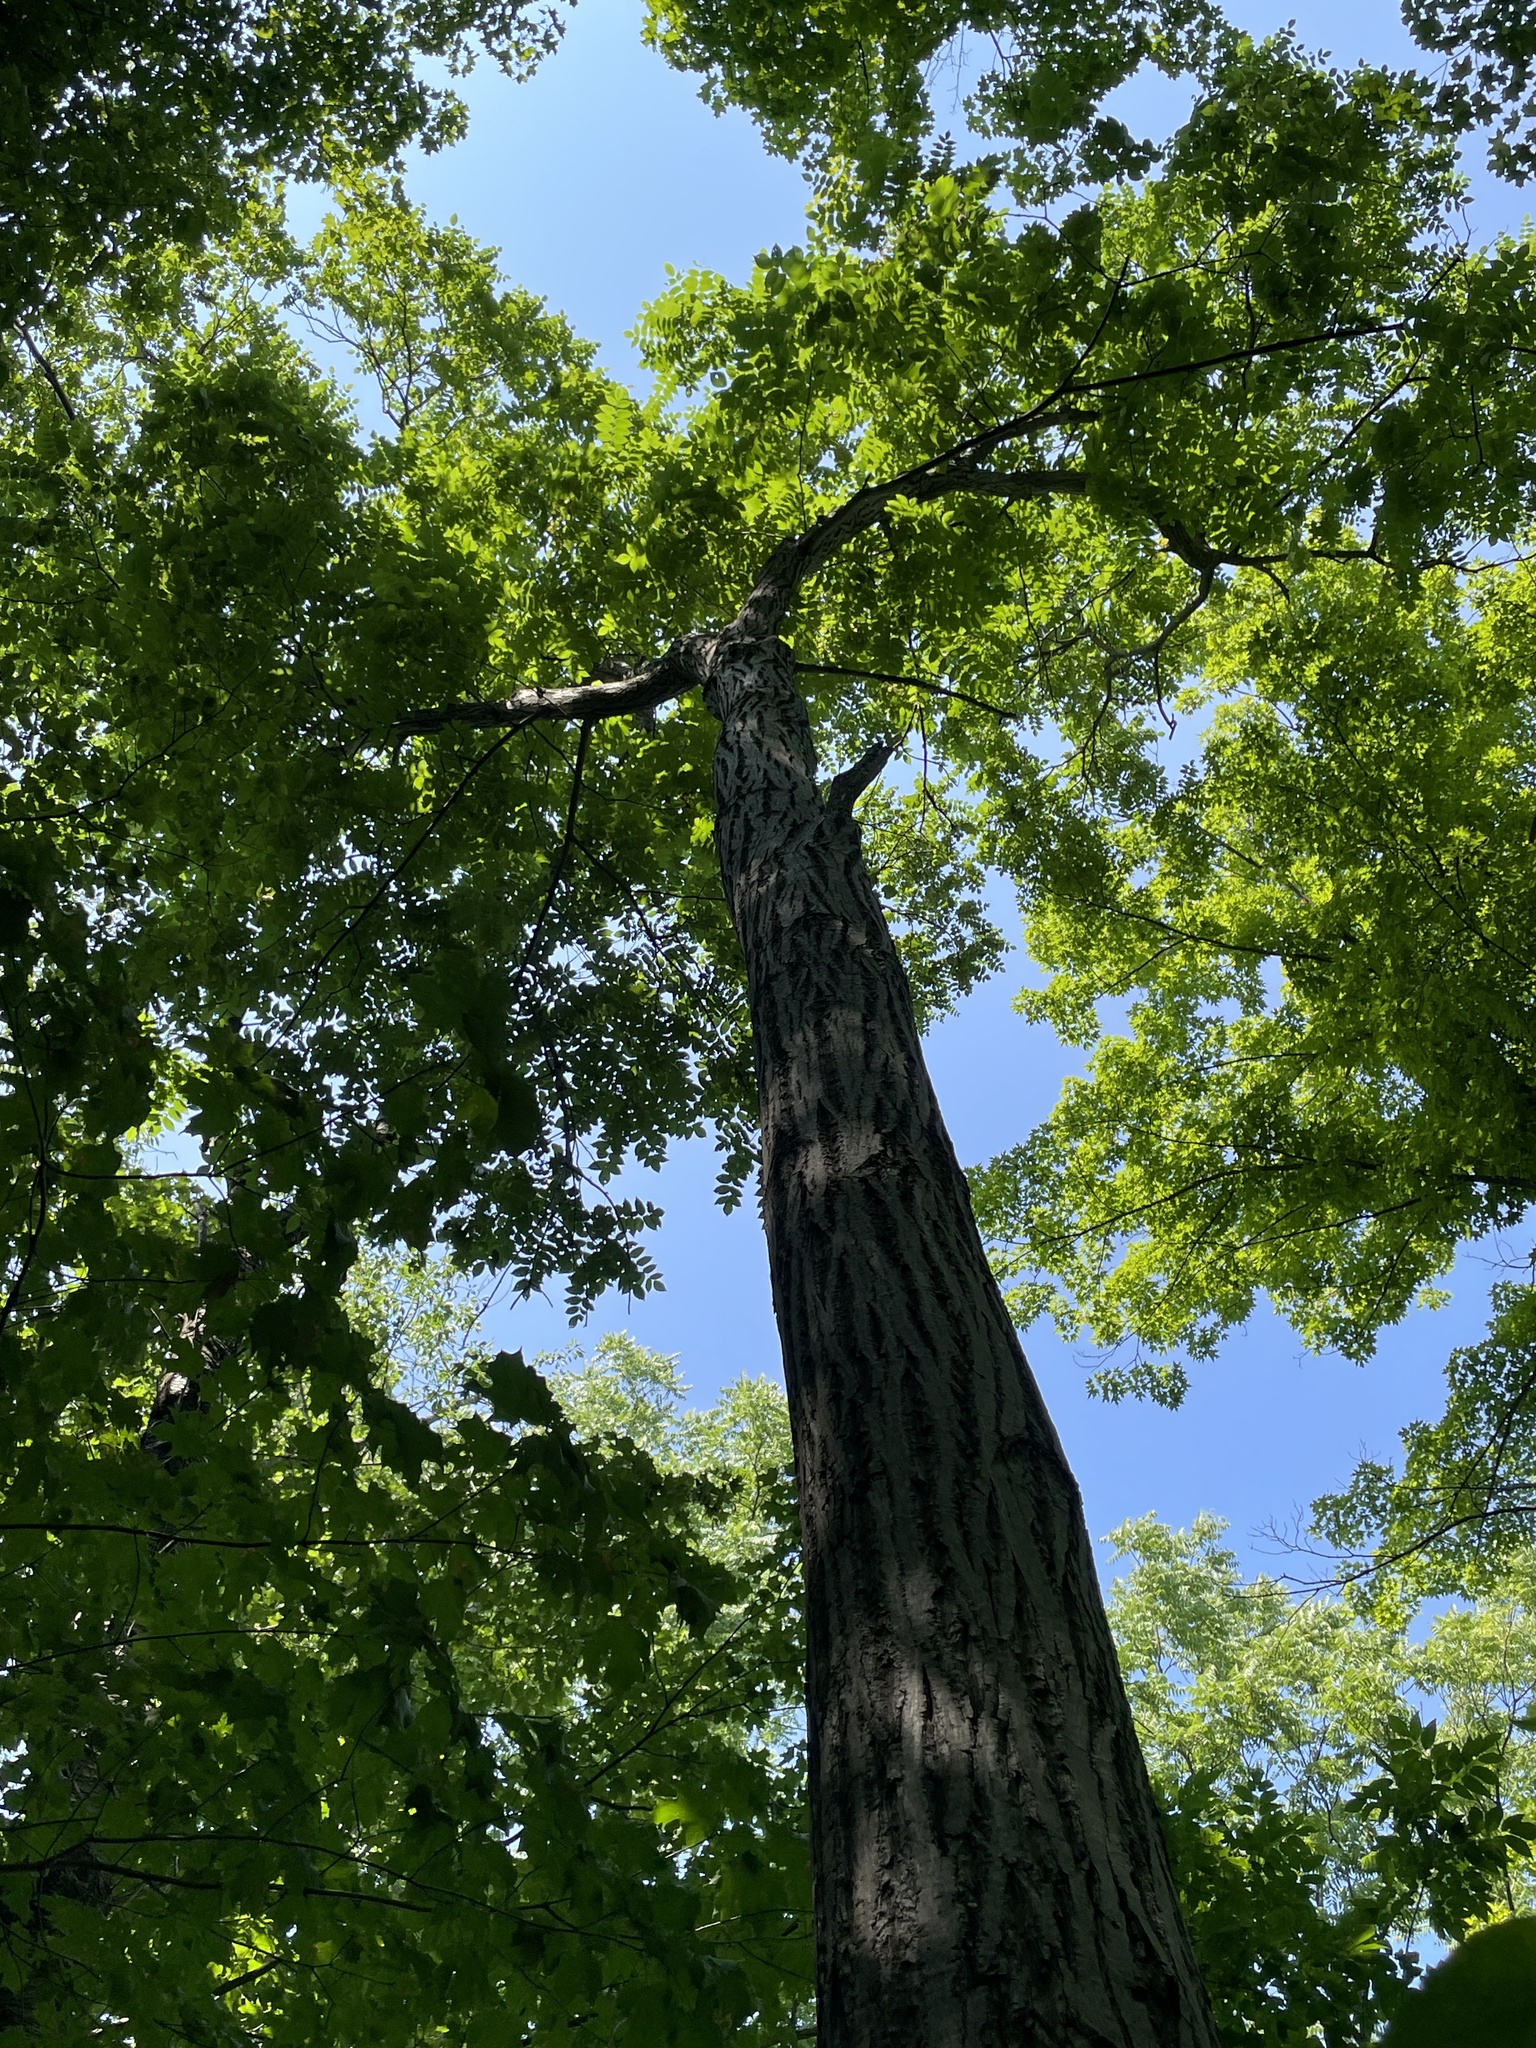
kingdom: Plantae
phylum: Tracheophyta
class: Magnoliopsida
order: Fagales
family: Juglandaceae
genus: Juglans
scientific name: Juglans cinerea
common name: Butternut
